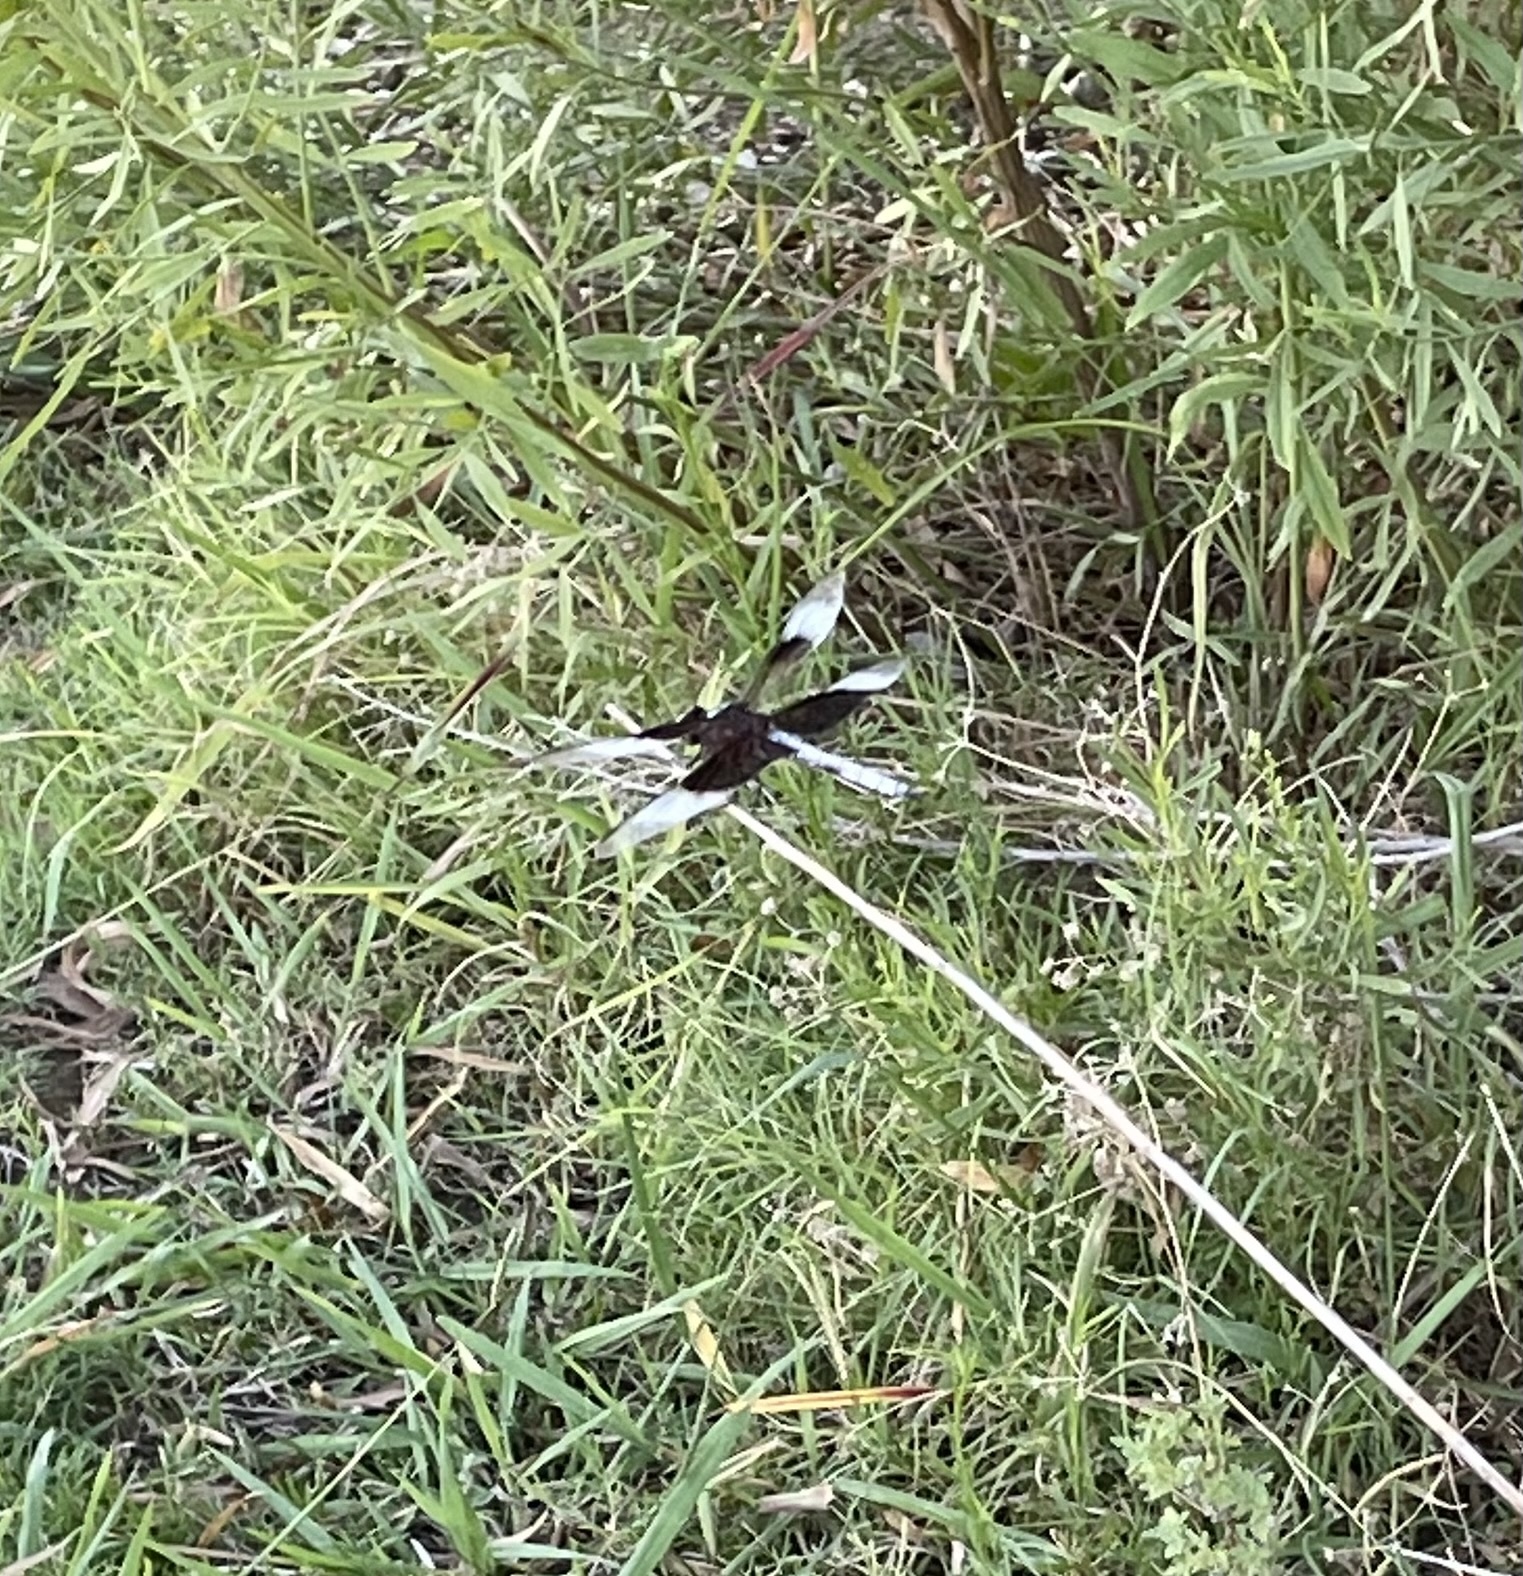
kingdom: Animalia
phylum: Arthropoda
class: Insecta
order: Odonata
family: Libellulidae
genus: Libellula
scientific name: Libellula luctuosa
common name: Widow skimmer
